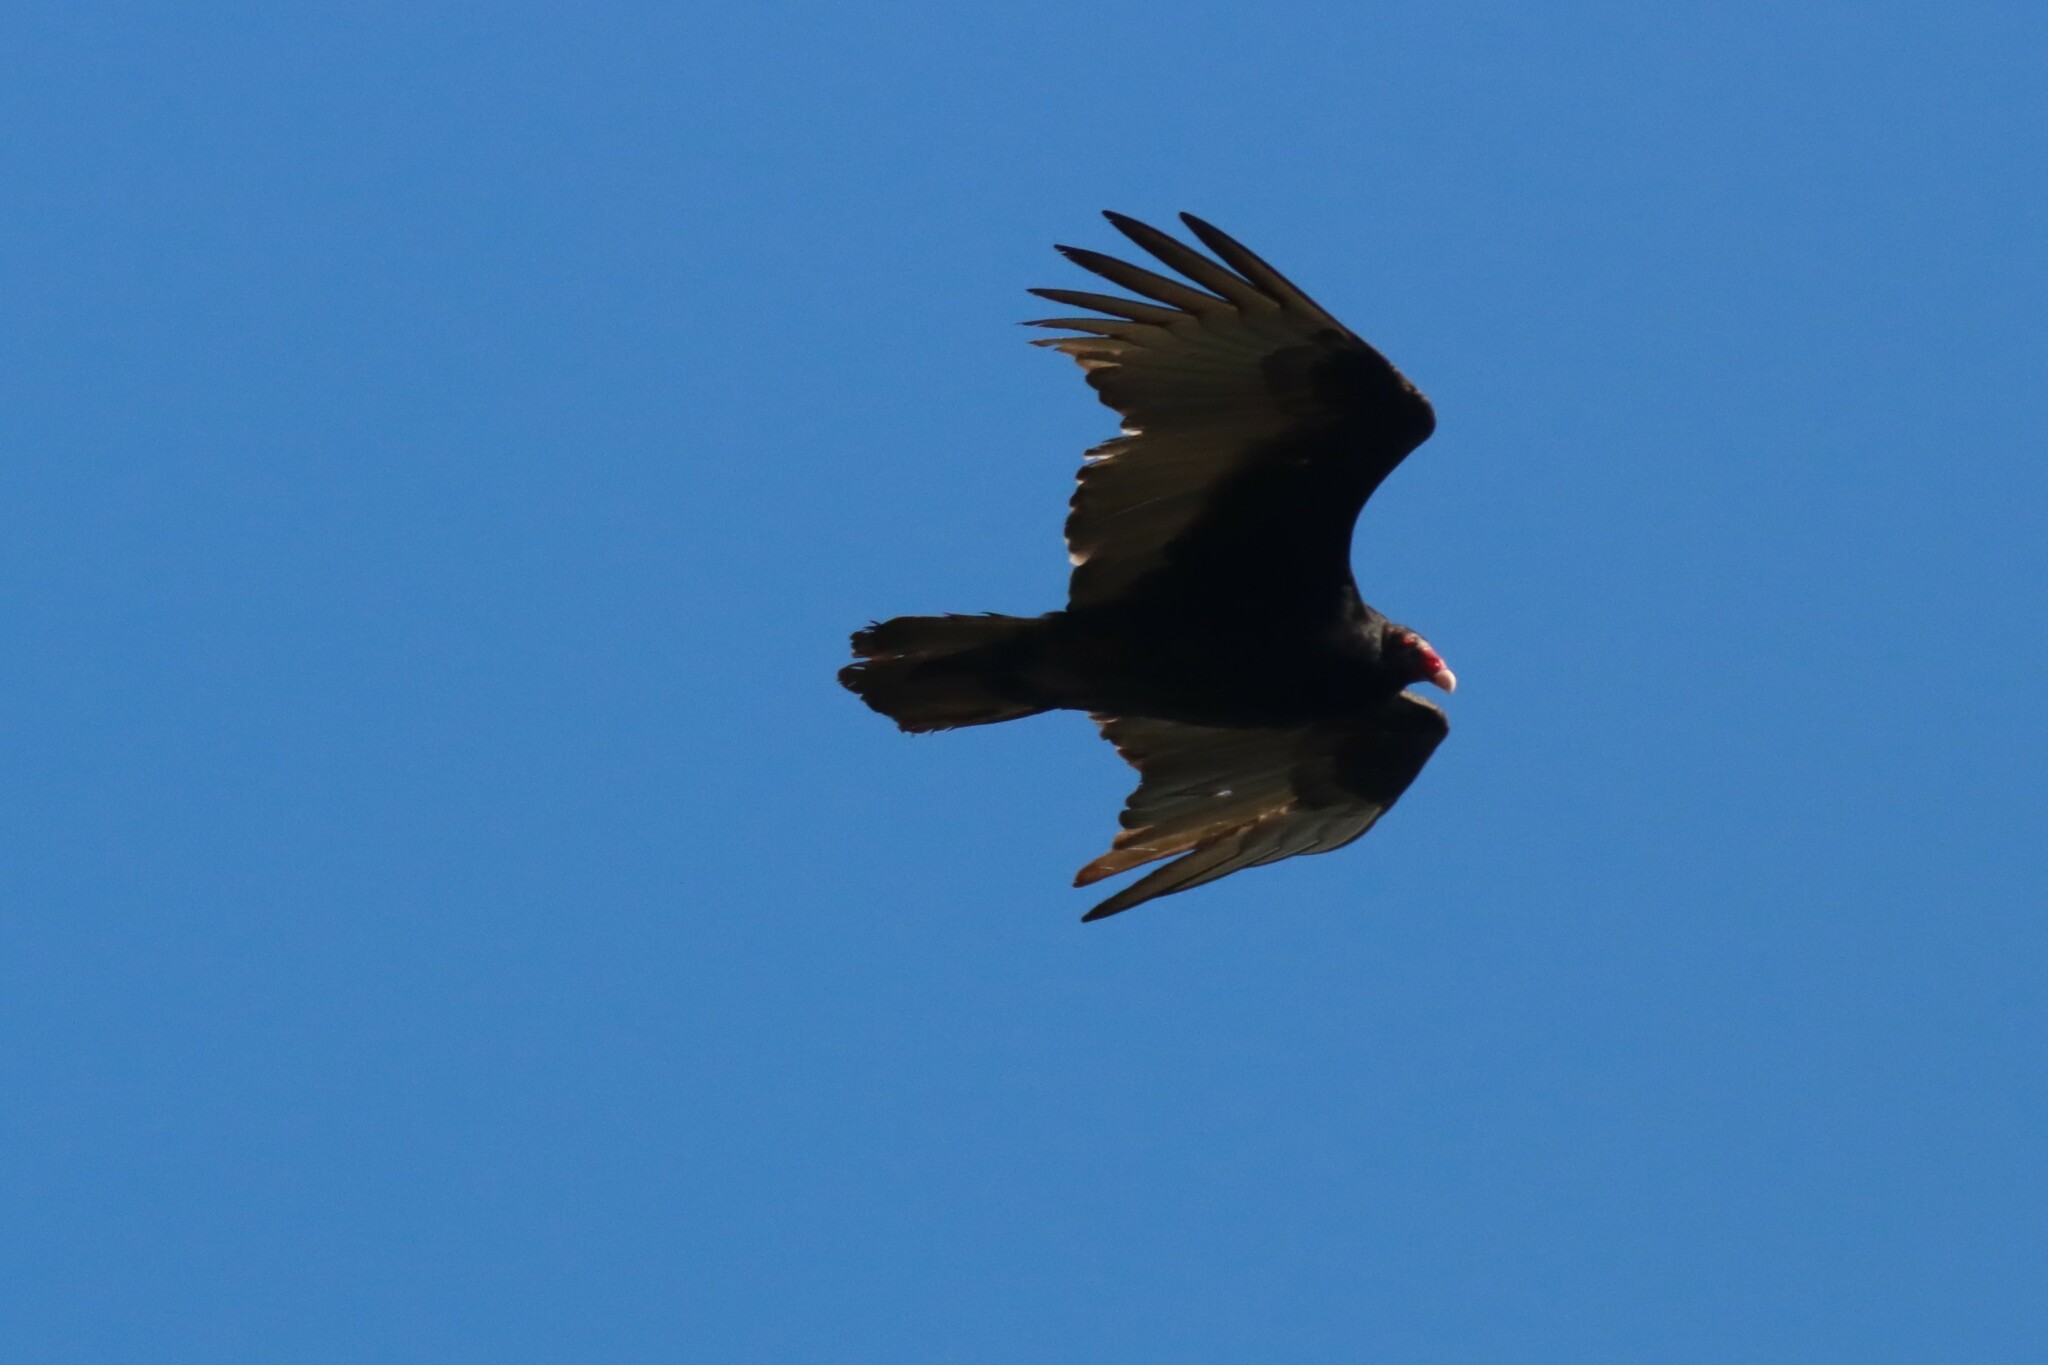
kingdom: Animalia
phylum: Chordata
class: Aves
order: Accipitriformes
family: Cathartidae
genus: Cathartes
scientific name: Cathartes aura
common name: Turkey vulture
